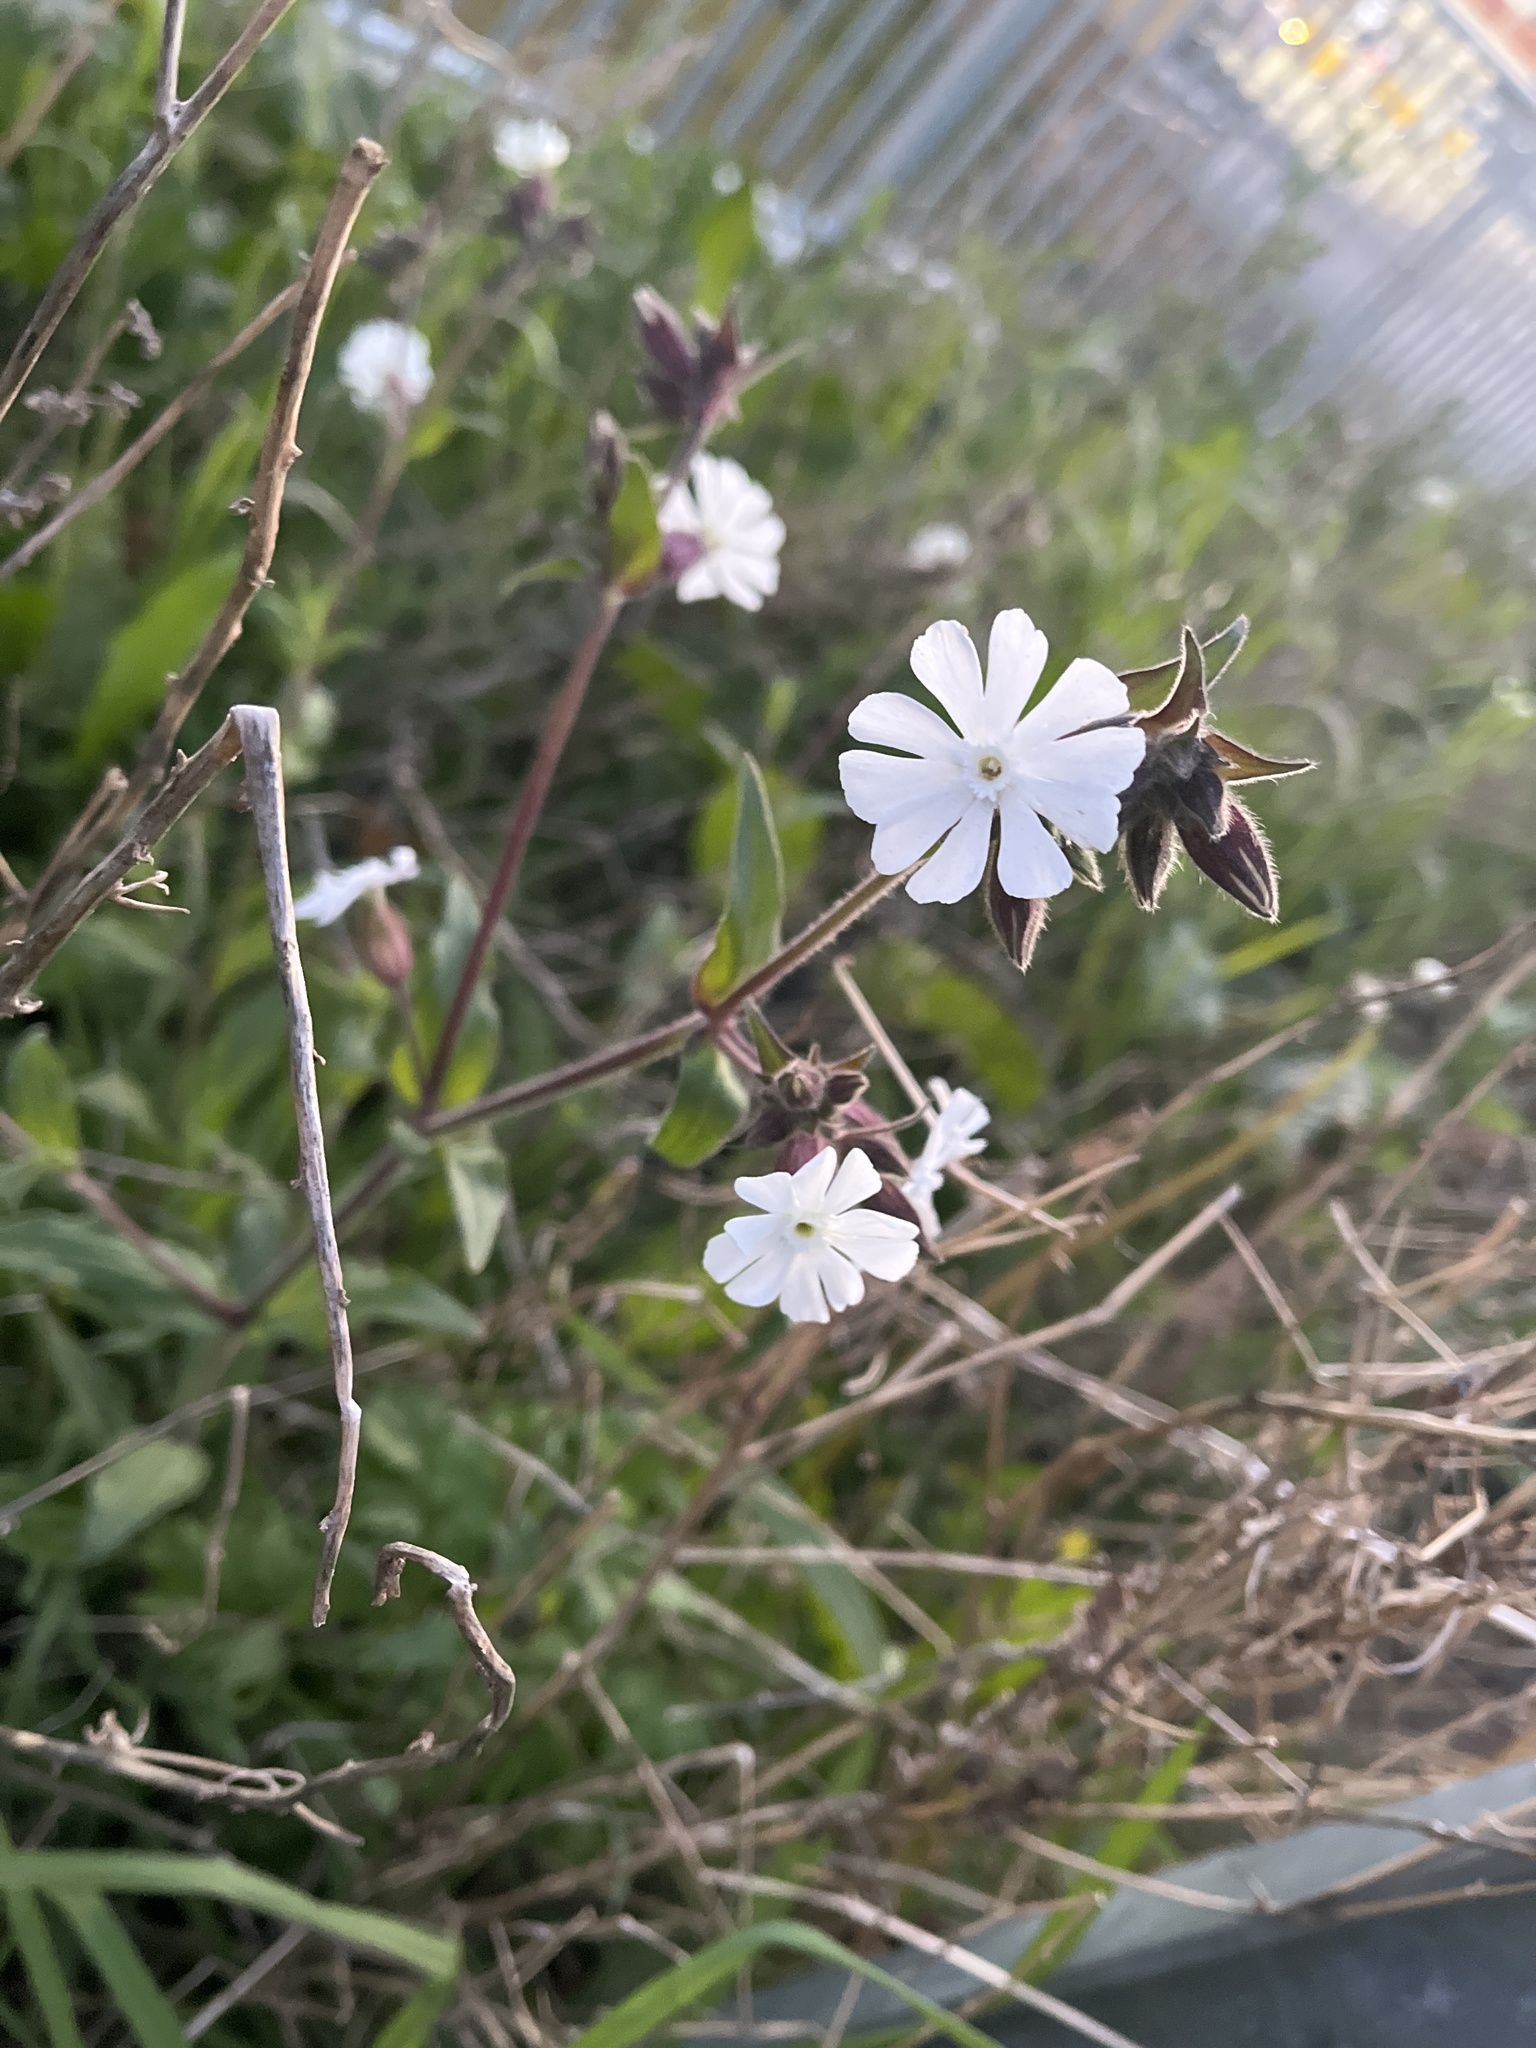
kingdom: Plantae
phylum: Tracheophyta
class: Magnoliopsida
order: Caryophyllales
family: Caryophyllaceae
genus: Silene
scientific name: Silene latifolia
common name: White campion
